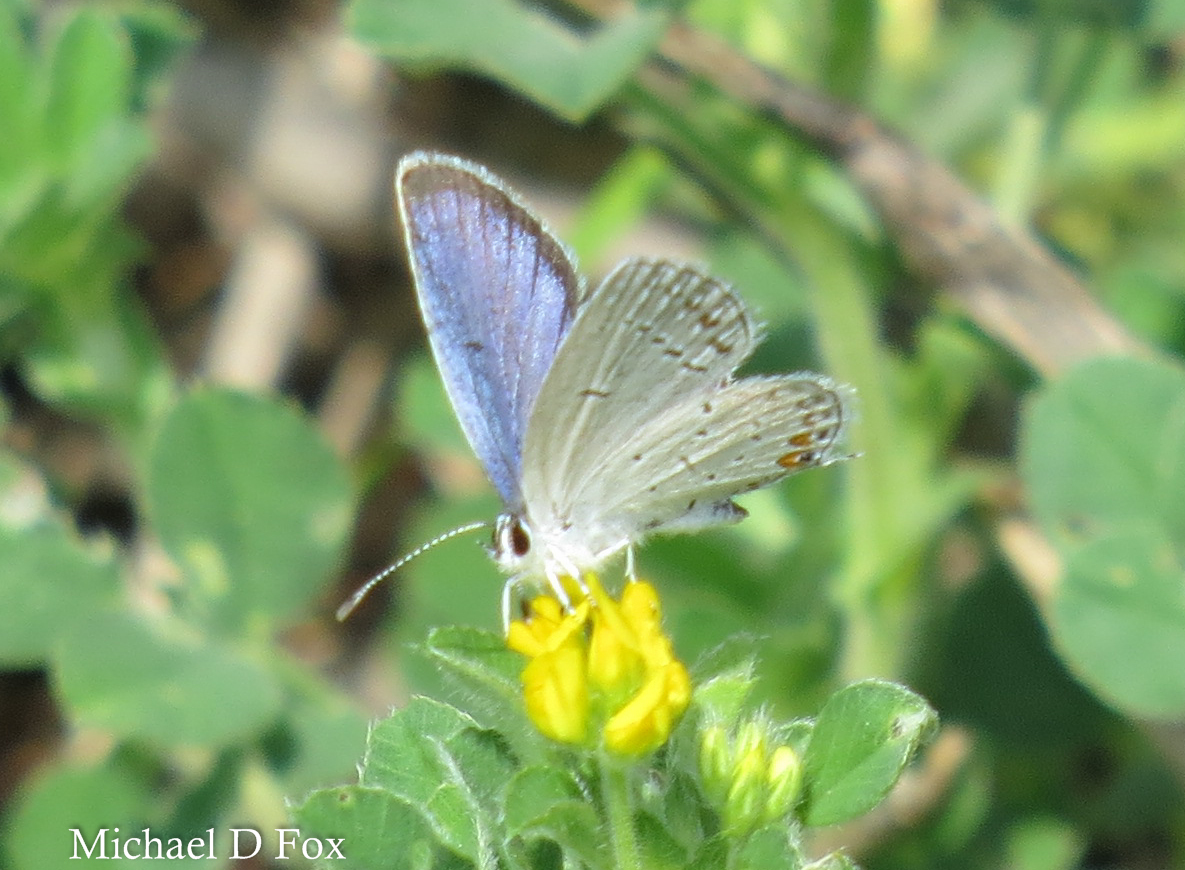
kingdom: Animalia
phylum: Arthropoda
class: Insecta
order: Lepidoptera
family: Lycaenidae
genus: Elkalyce
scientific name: Elkalyce comyntas
